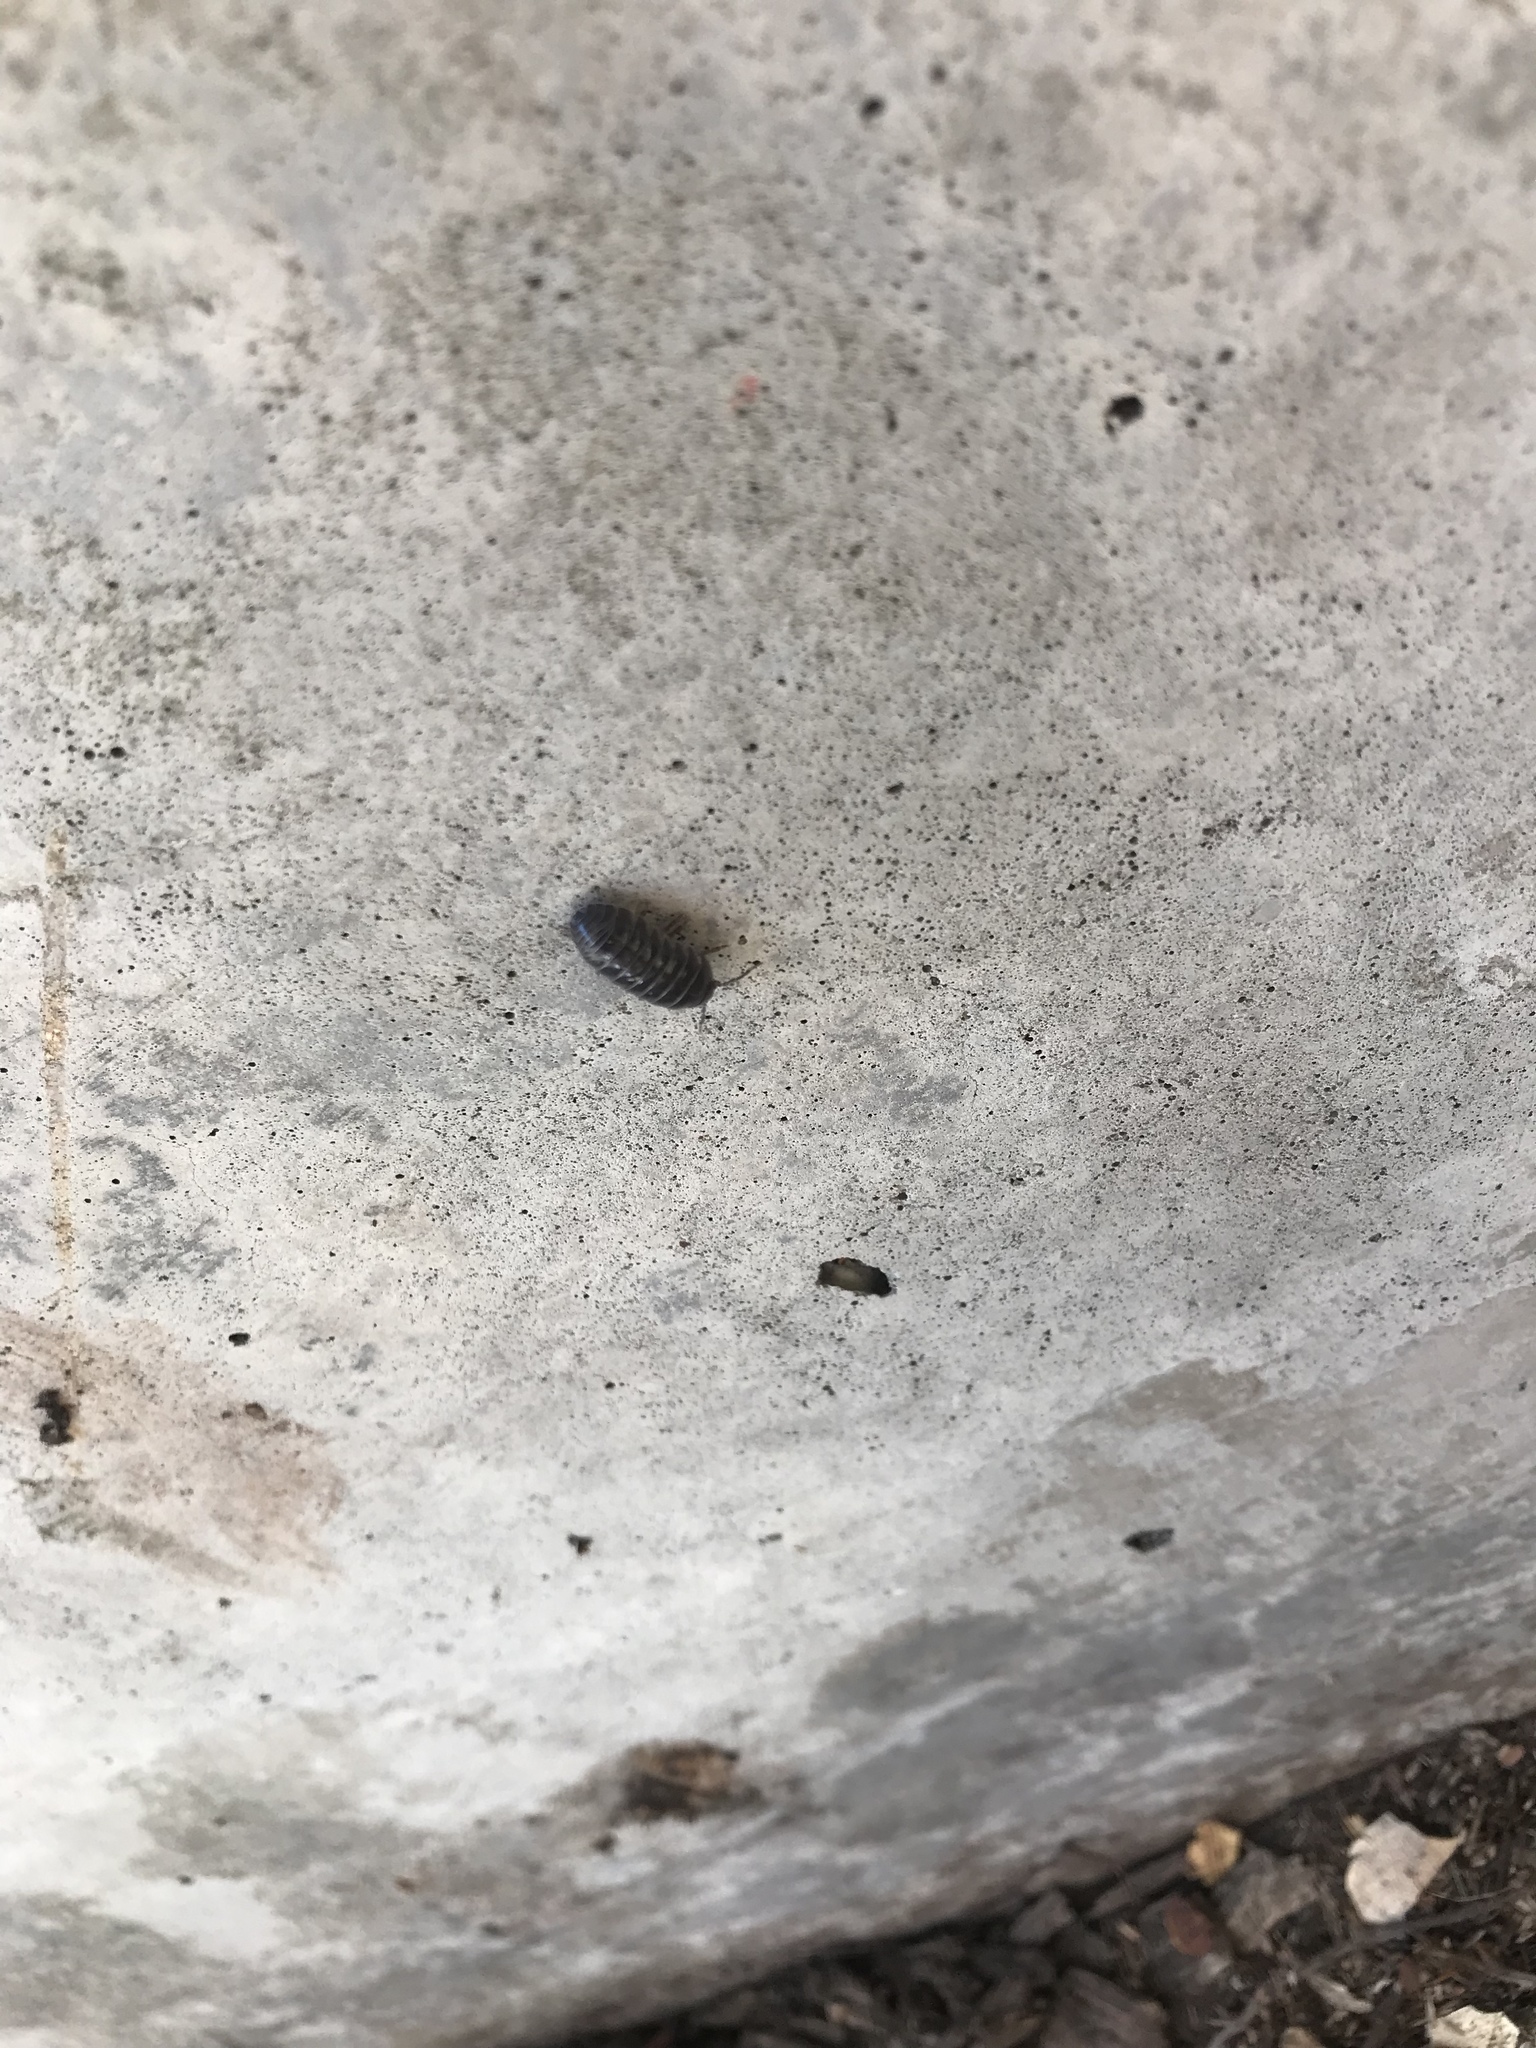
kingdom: Animalia
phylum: Arthropoda
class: Malacostraca
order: Isopoda
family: Armadillidiidae
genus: Armadillidium
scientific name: Armadillidium vulgare
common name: Common pill woodlouse
